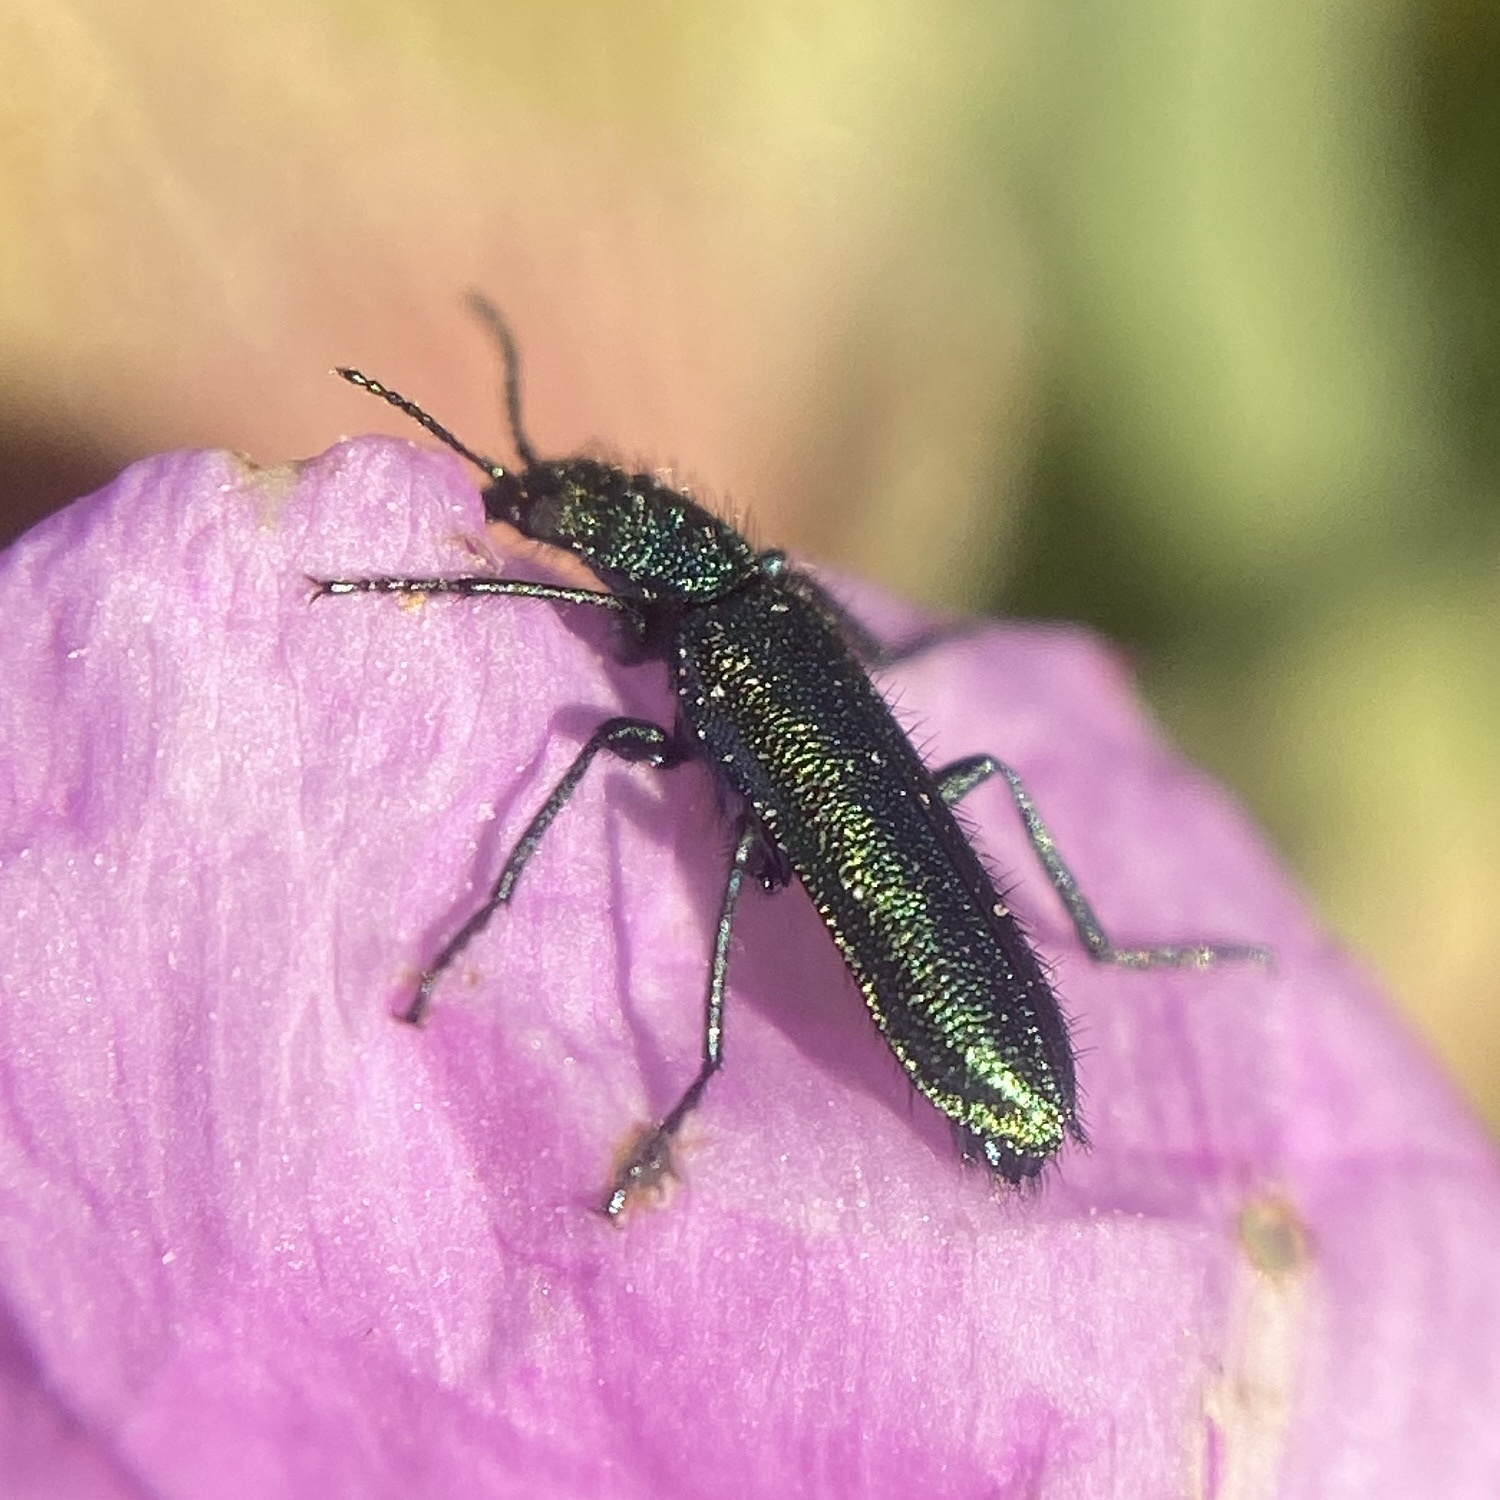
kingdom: Animalia
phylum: Arthropoda
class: Insecta
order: Coleoptera
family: Dasytidae
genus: Psilothrix
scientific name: Psilothrix viridicoerulea
